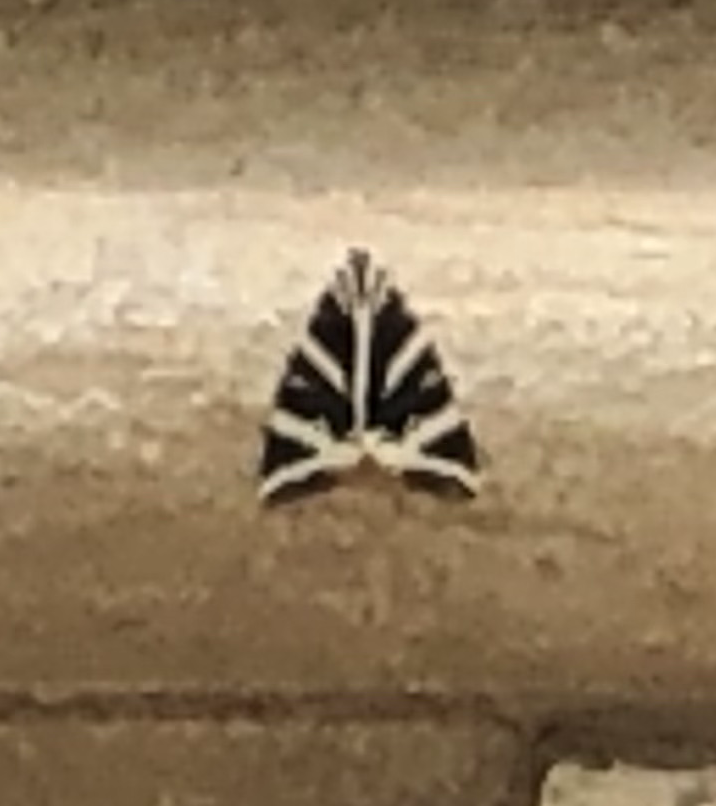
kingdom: Animalia
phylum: Arthropoda
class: Insecta
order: Lepidoptera
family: Erebidae
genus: Euplagia
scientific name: Euplagia quadripunctaria
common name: Jersey tiger
